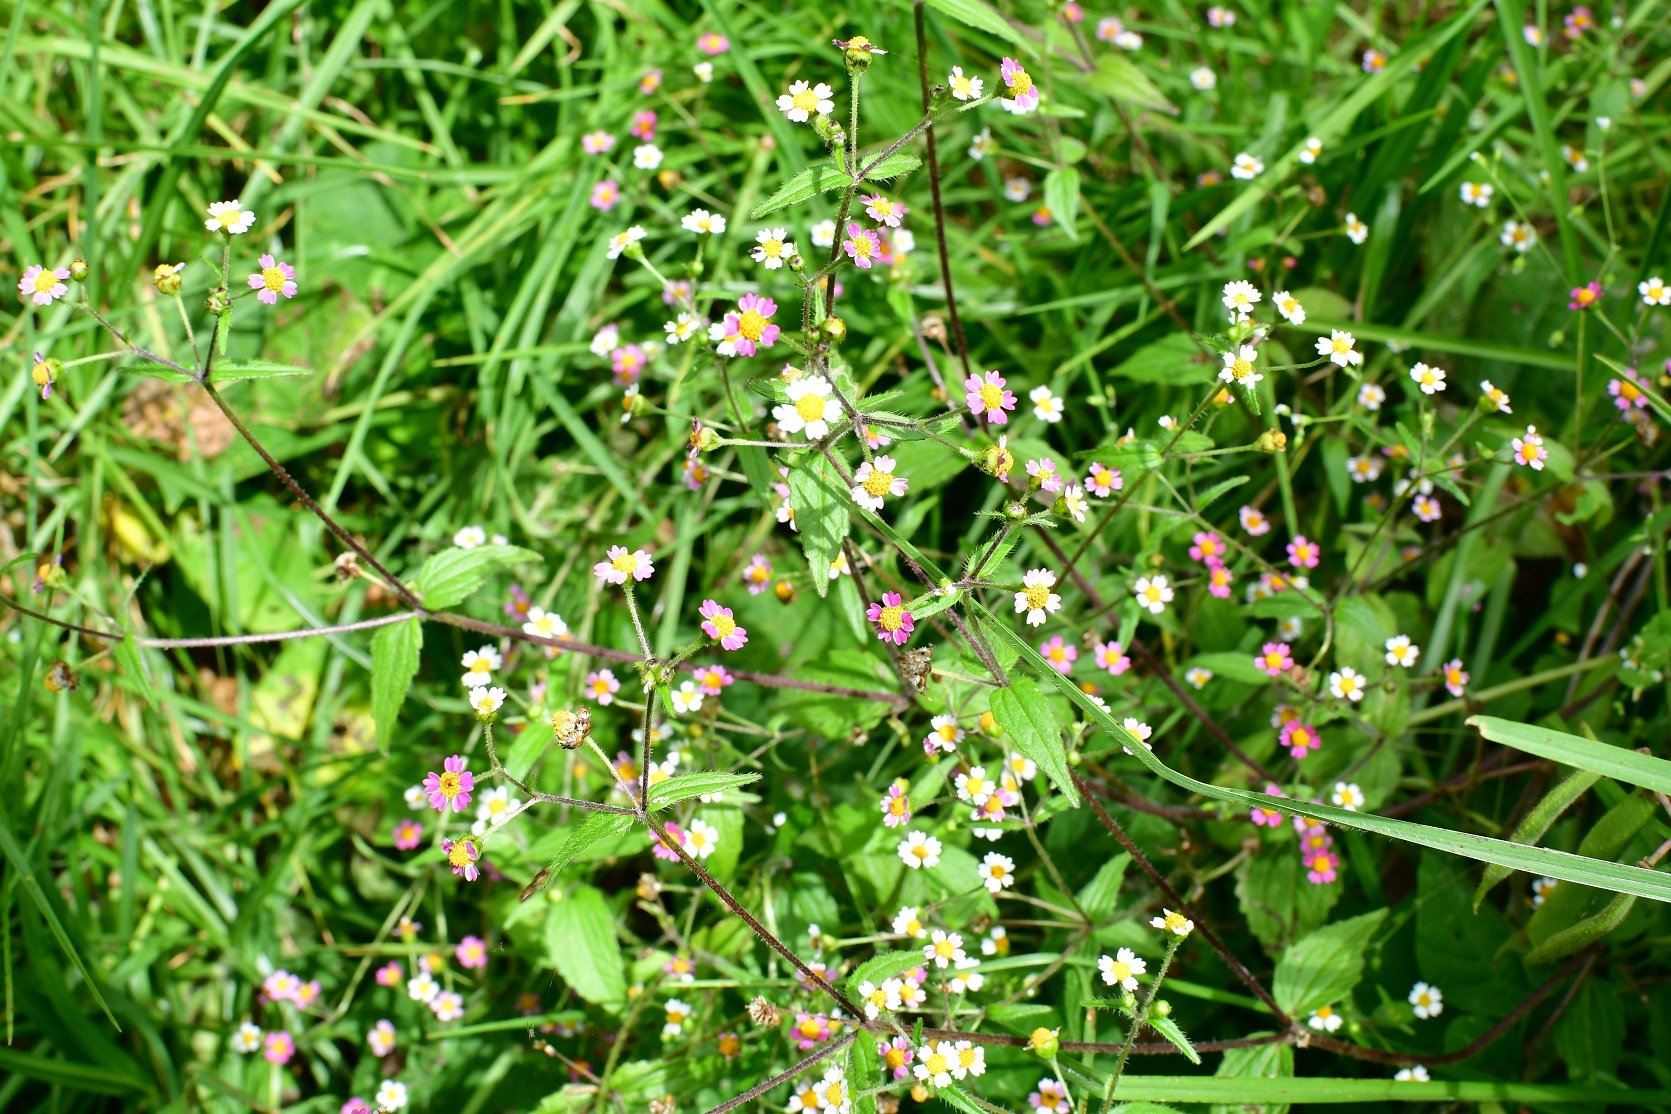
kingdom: Plantae
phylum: Tracheophyta
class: Magnoliopsida
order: Asterales
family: Asteraceae
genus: Galinsoga
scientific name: Galinsoga quadriradiata
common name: Shaggy soldier
